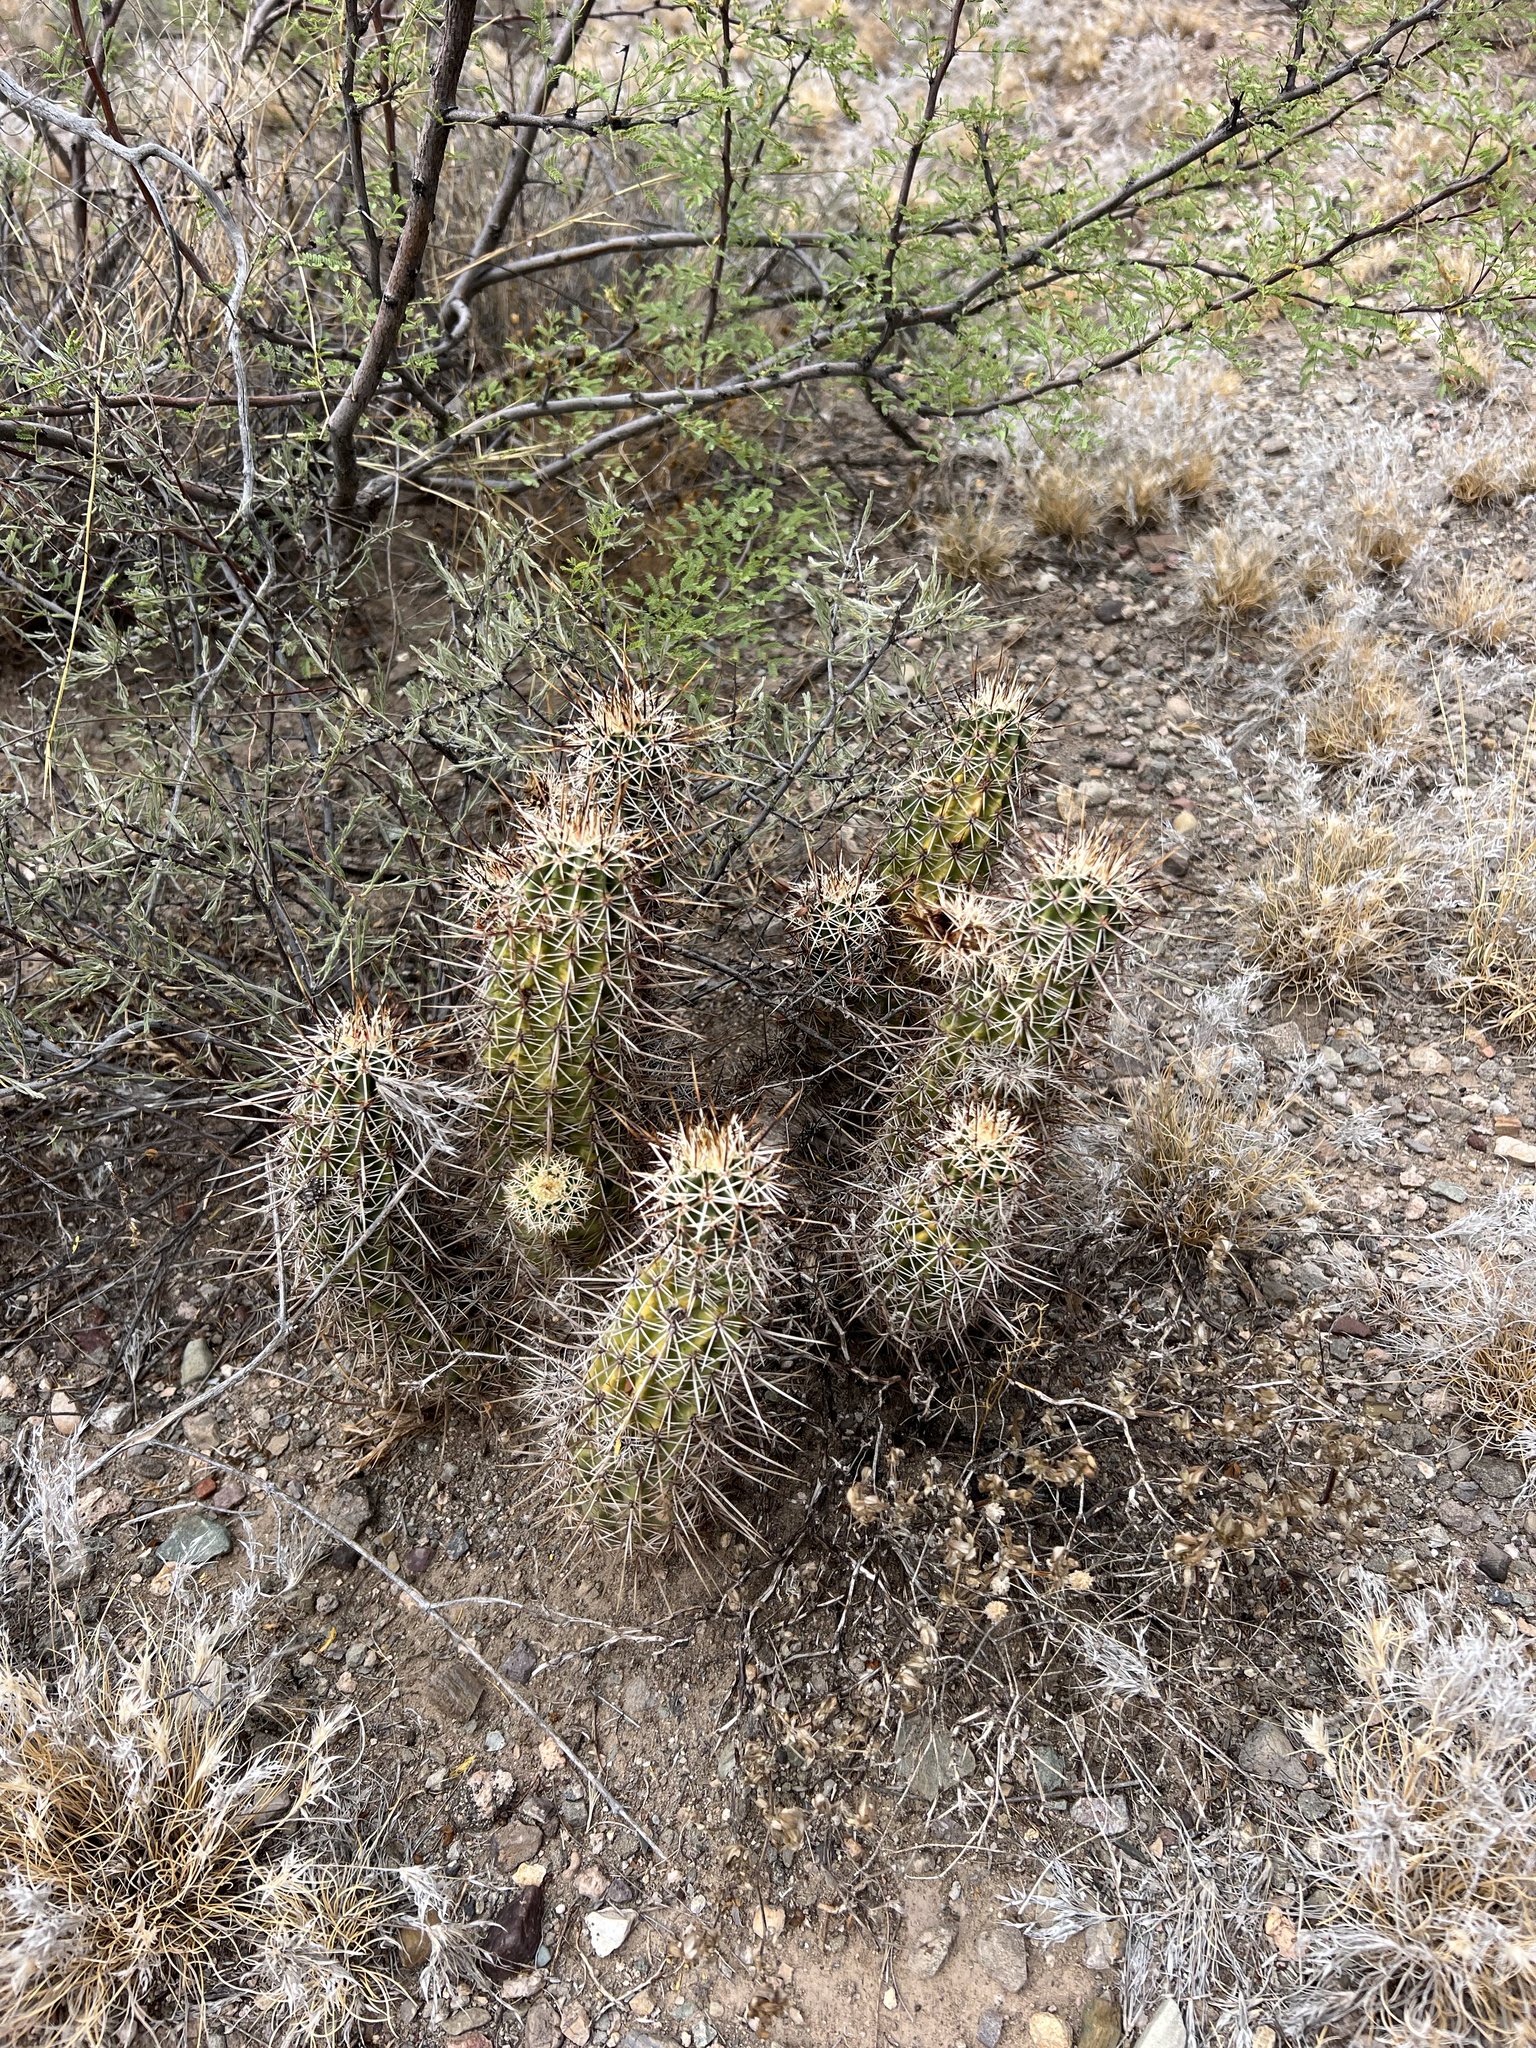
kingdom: Plantae
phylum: Tracheophyta
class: Magnoliopsida
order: Caryophyllales
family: Cactaceae
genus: Echinocereus
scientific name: Echinocereus fasciculatus
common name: Bundle hedgehog
